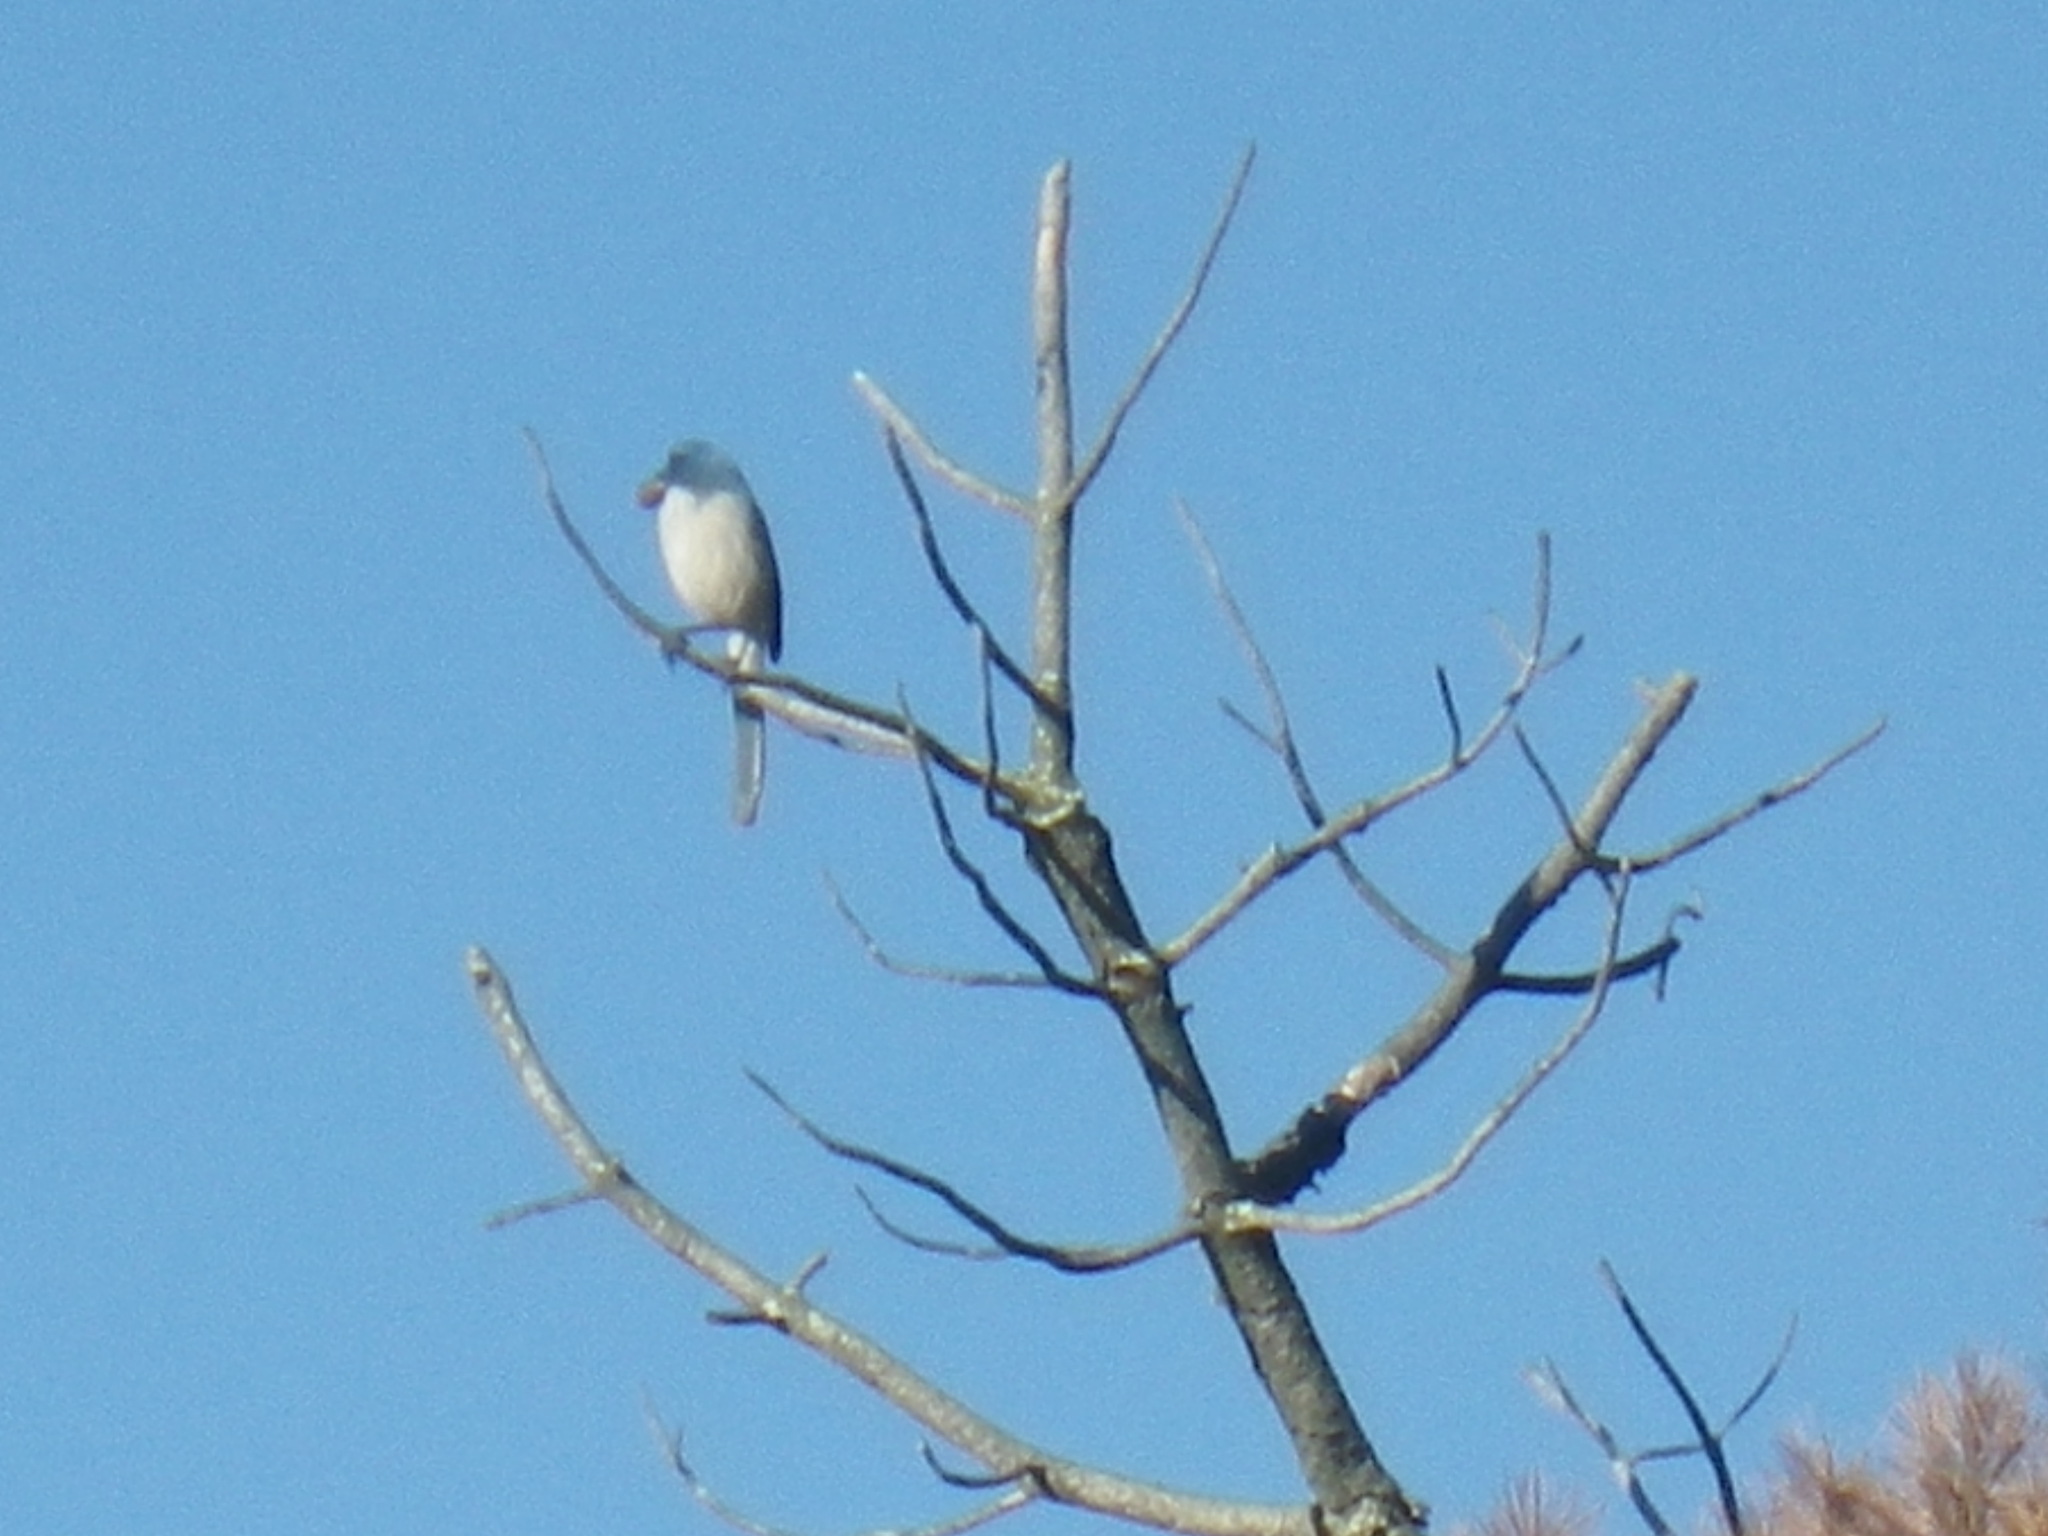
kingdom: Animalia
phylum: Chordata
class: Aves
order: Passeriformes
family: Corvidae
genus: Aphelocoma
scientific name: Aphelocoma californica
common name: California scrub-jay
